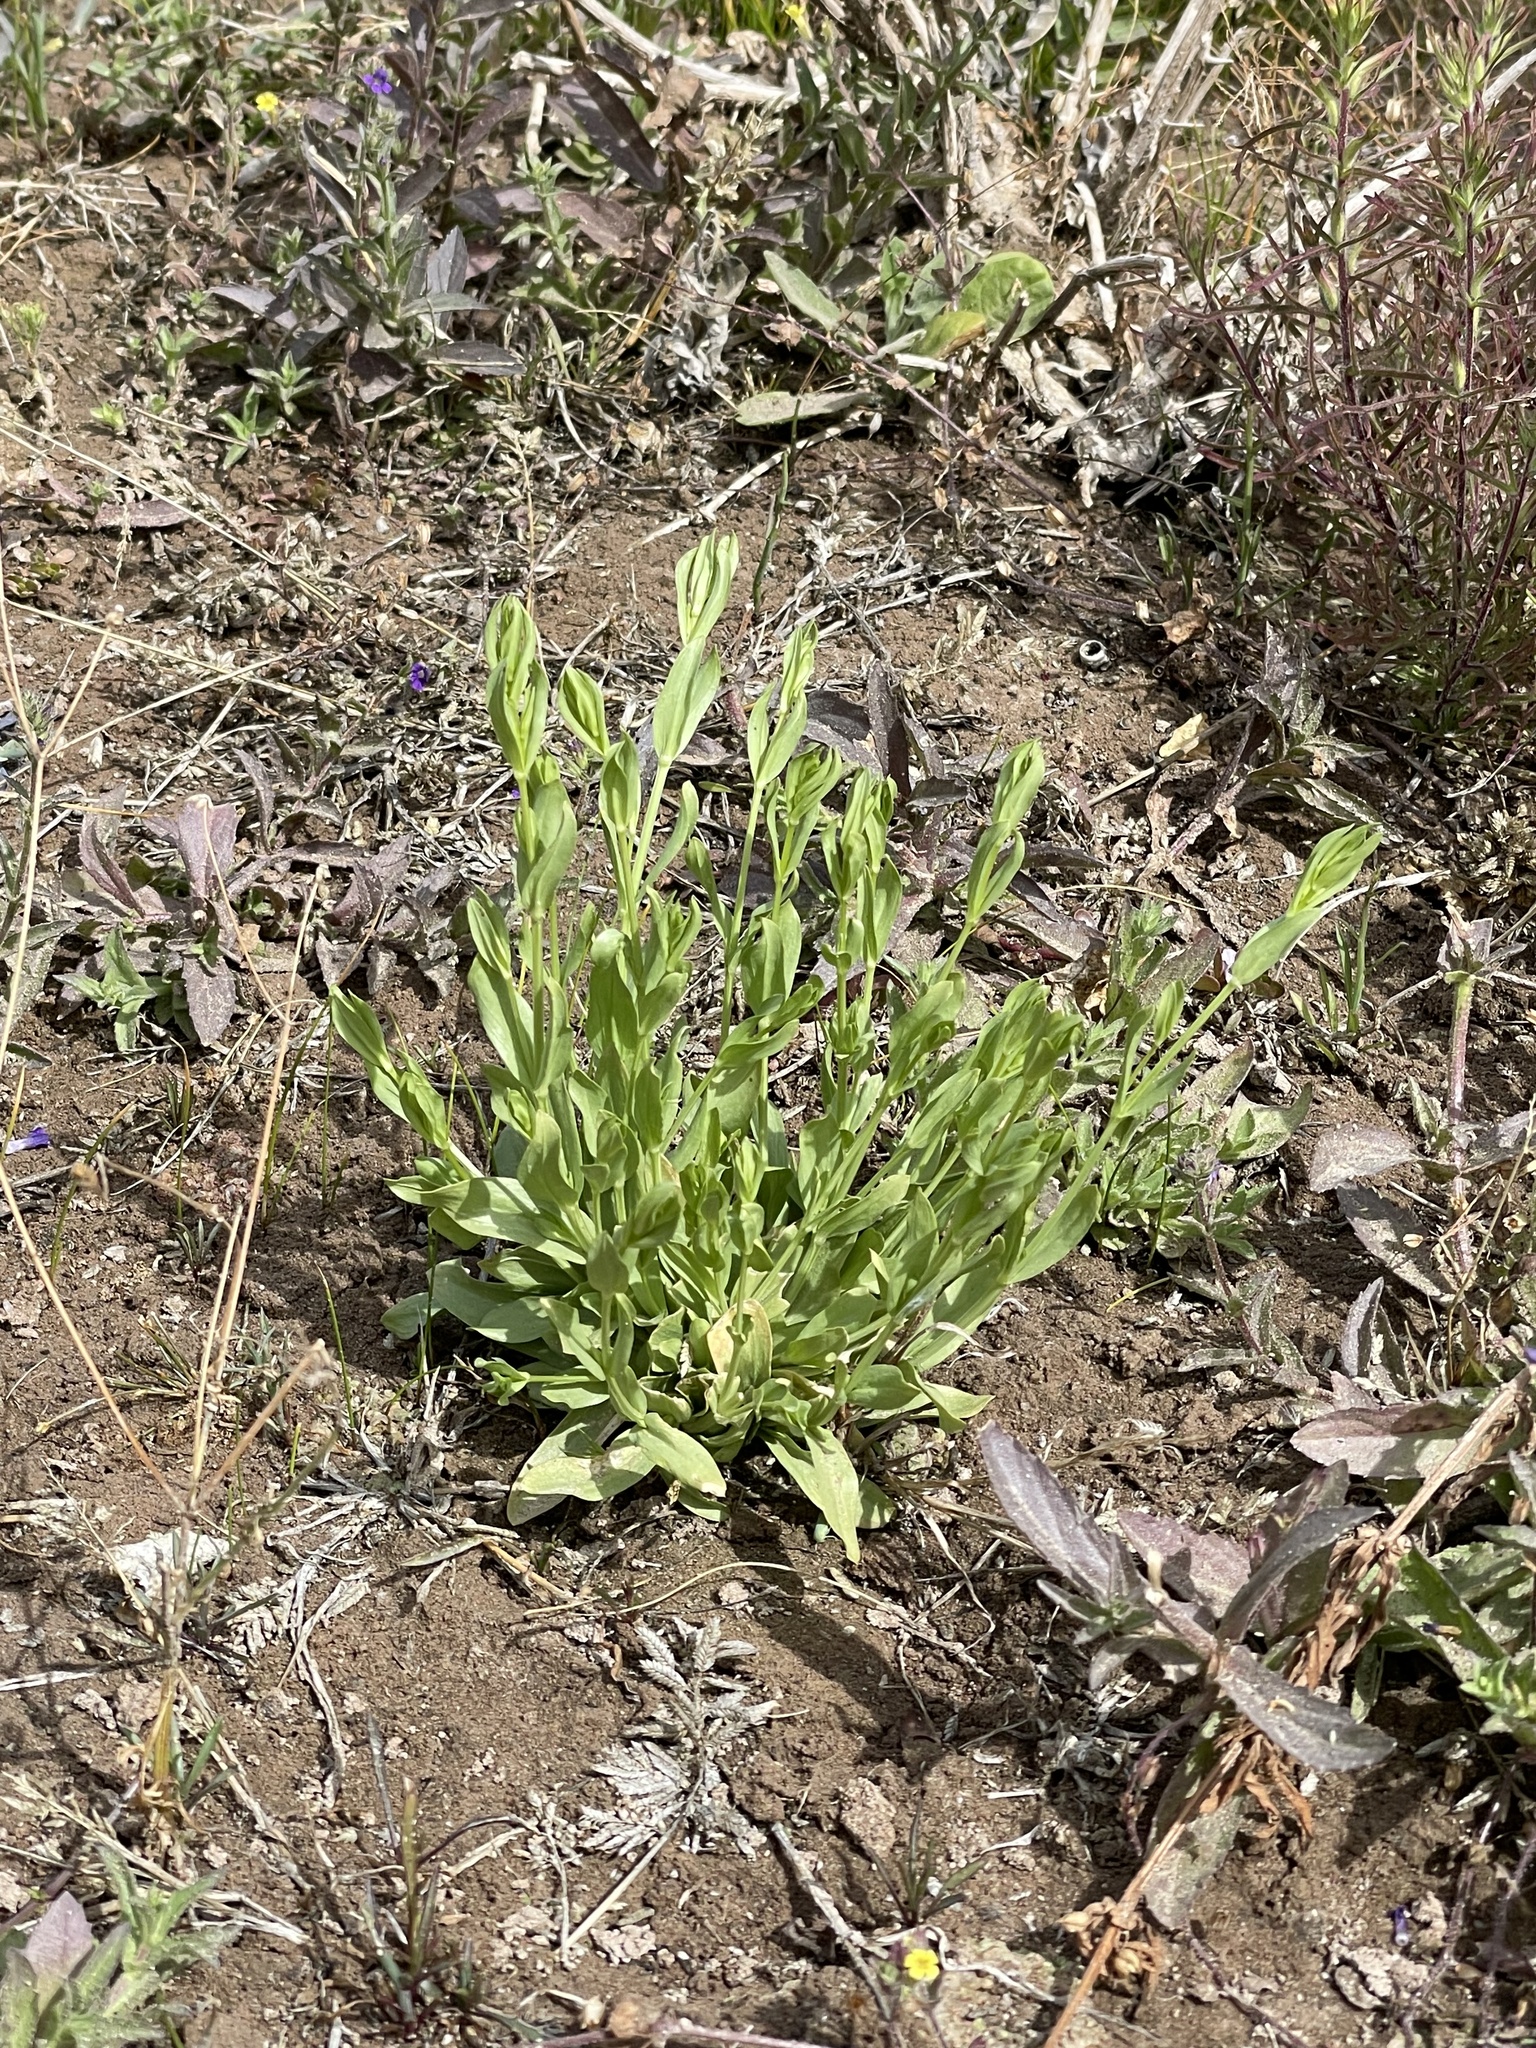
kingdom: Plantae
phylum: Tracheophyta
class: Magnoliopsida
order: Gentianales
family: Gentianaceae
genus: Eustoma
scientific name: Eustoma exaltatum
